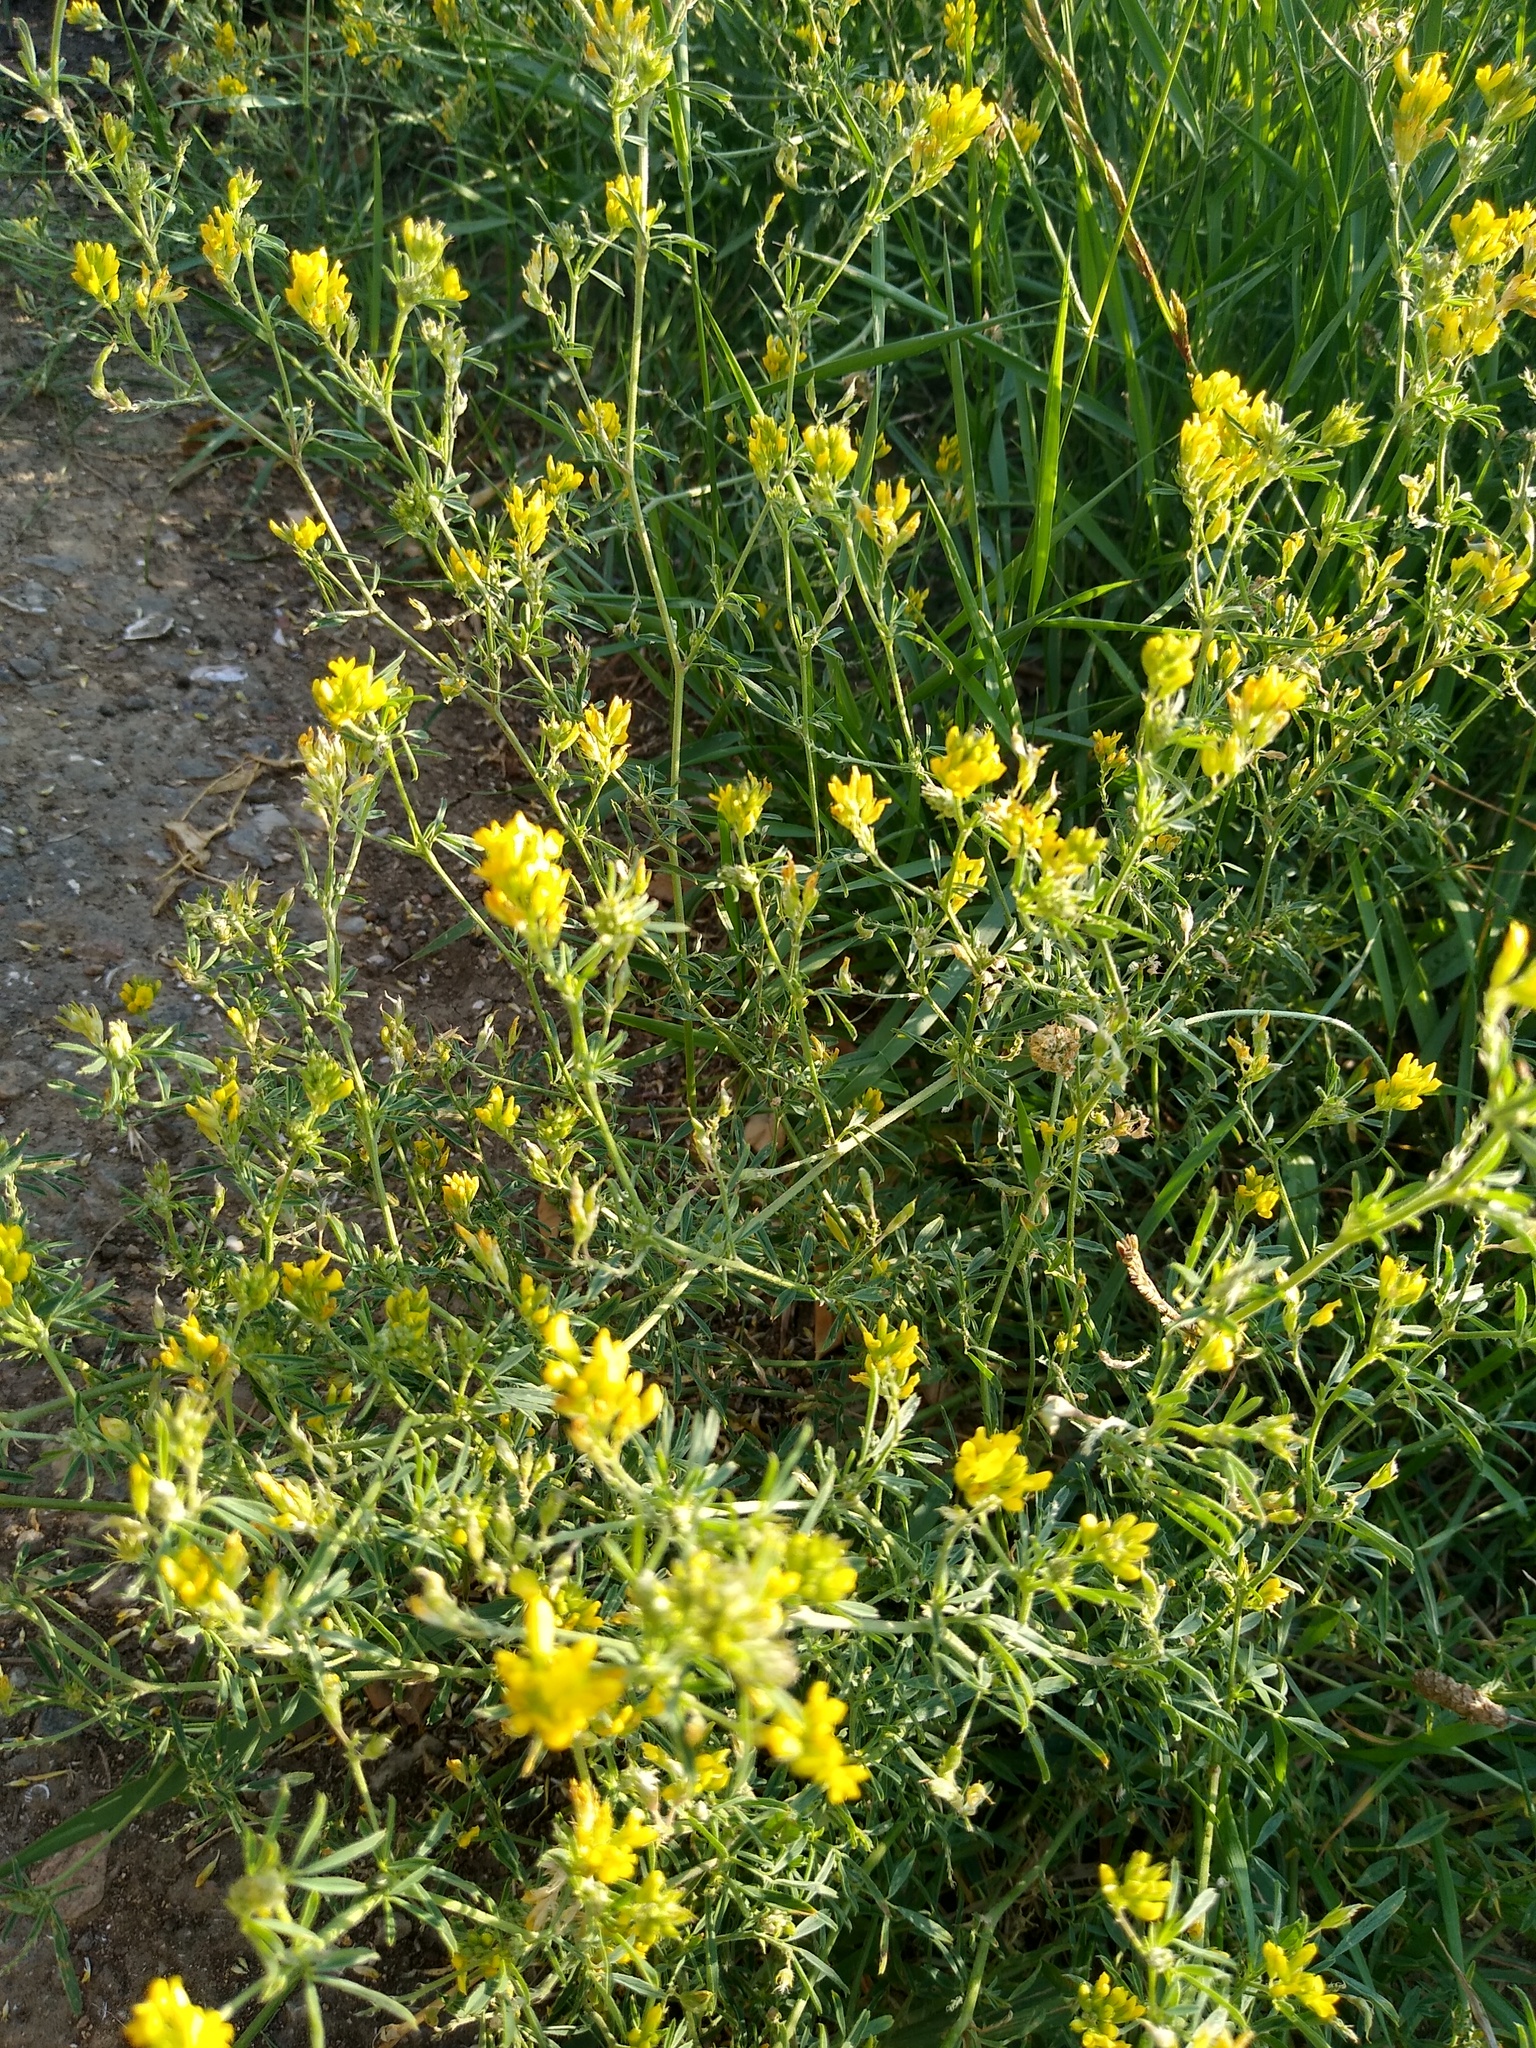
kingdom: Plantae
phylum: Tracheophyta
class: Magnoliopsida
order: Fabales
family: Fabaceae
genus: Medicago
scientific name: Medicago falcata
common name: Sickle medick
